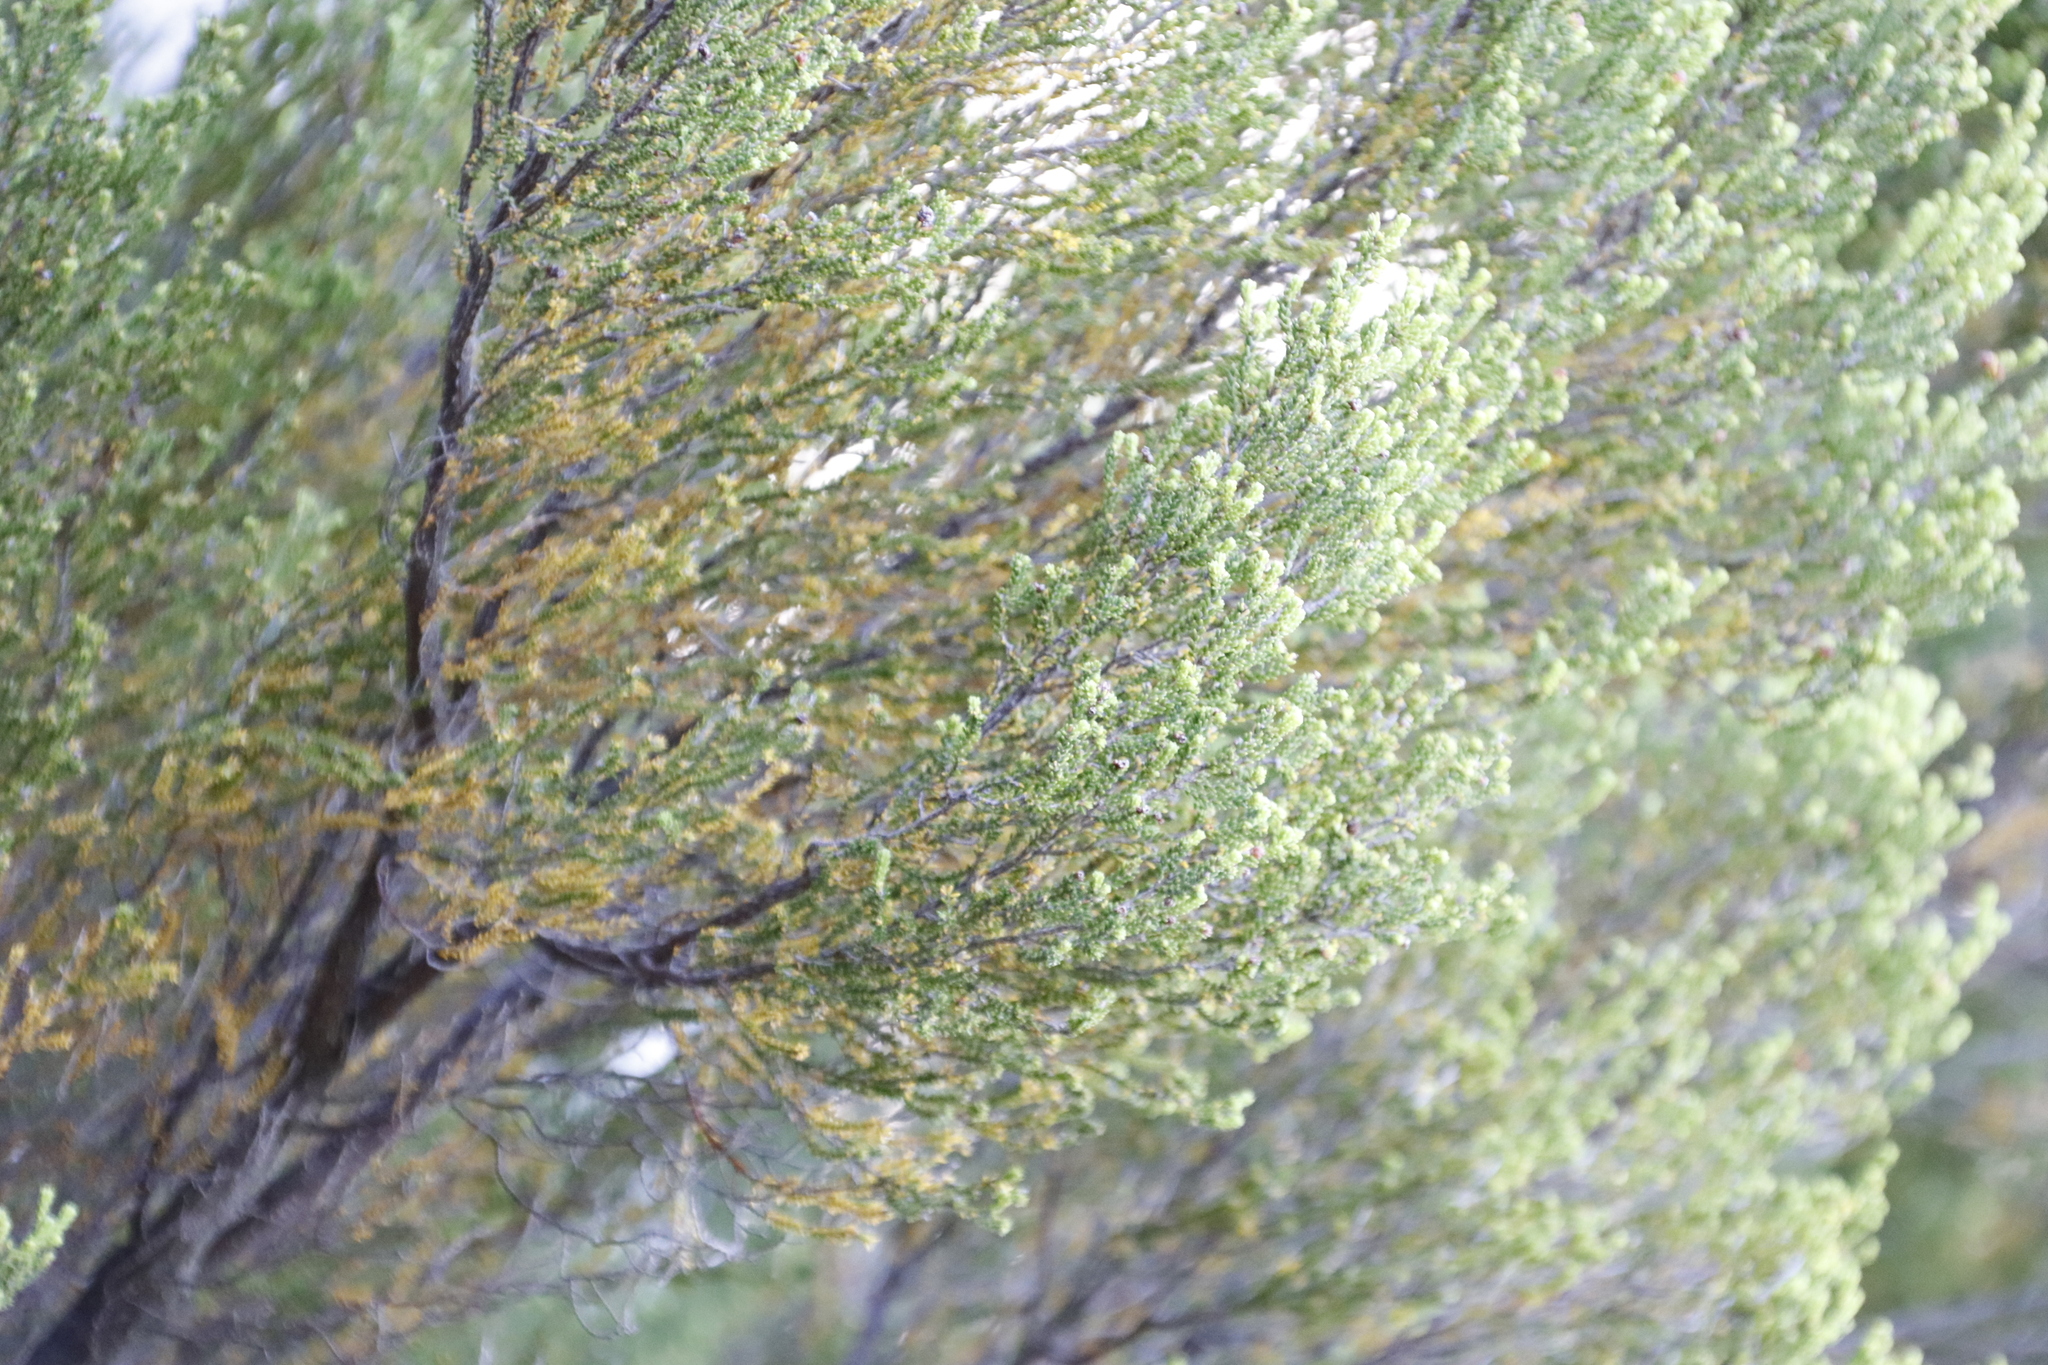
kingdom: Plantae
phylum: Tracheophyta
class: Magnoliopsida
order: Ericales
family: Ericaceae
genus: Erica
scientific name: Erica tristis
